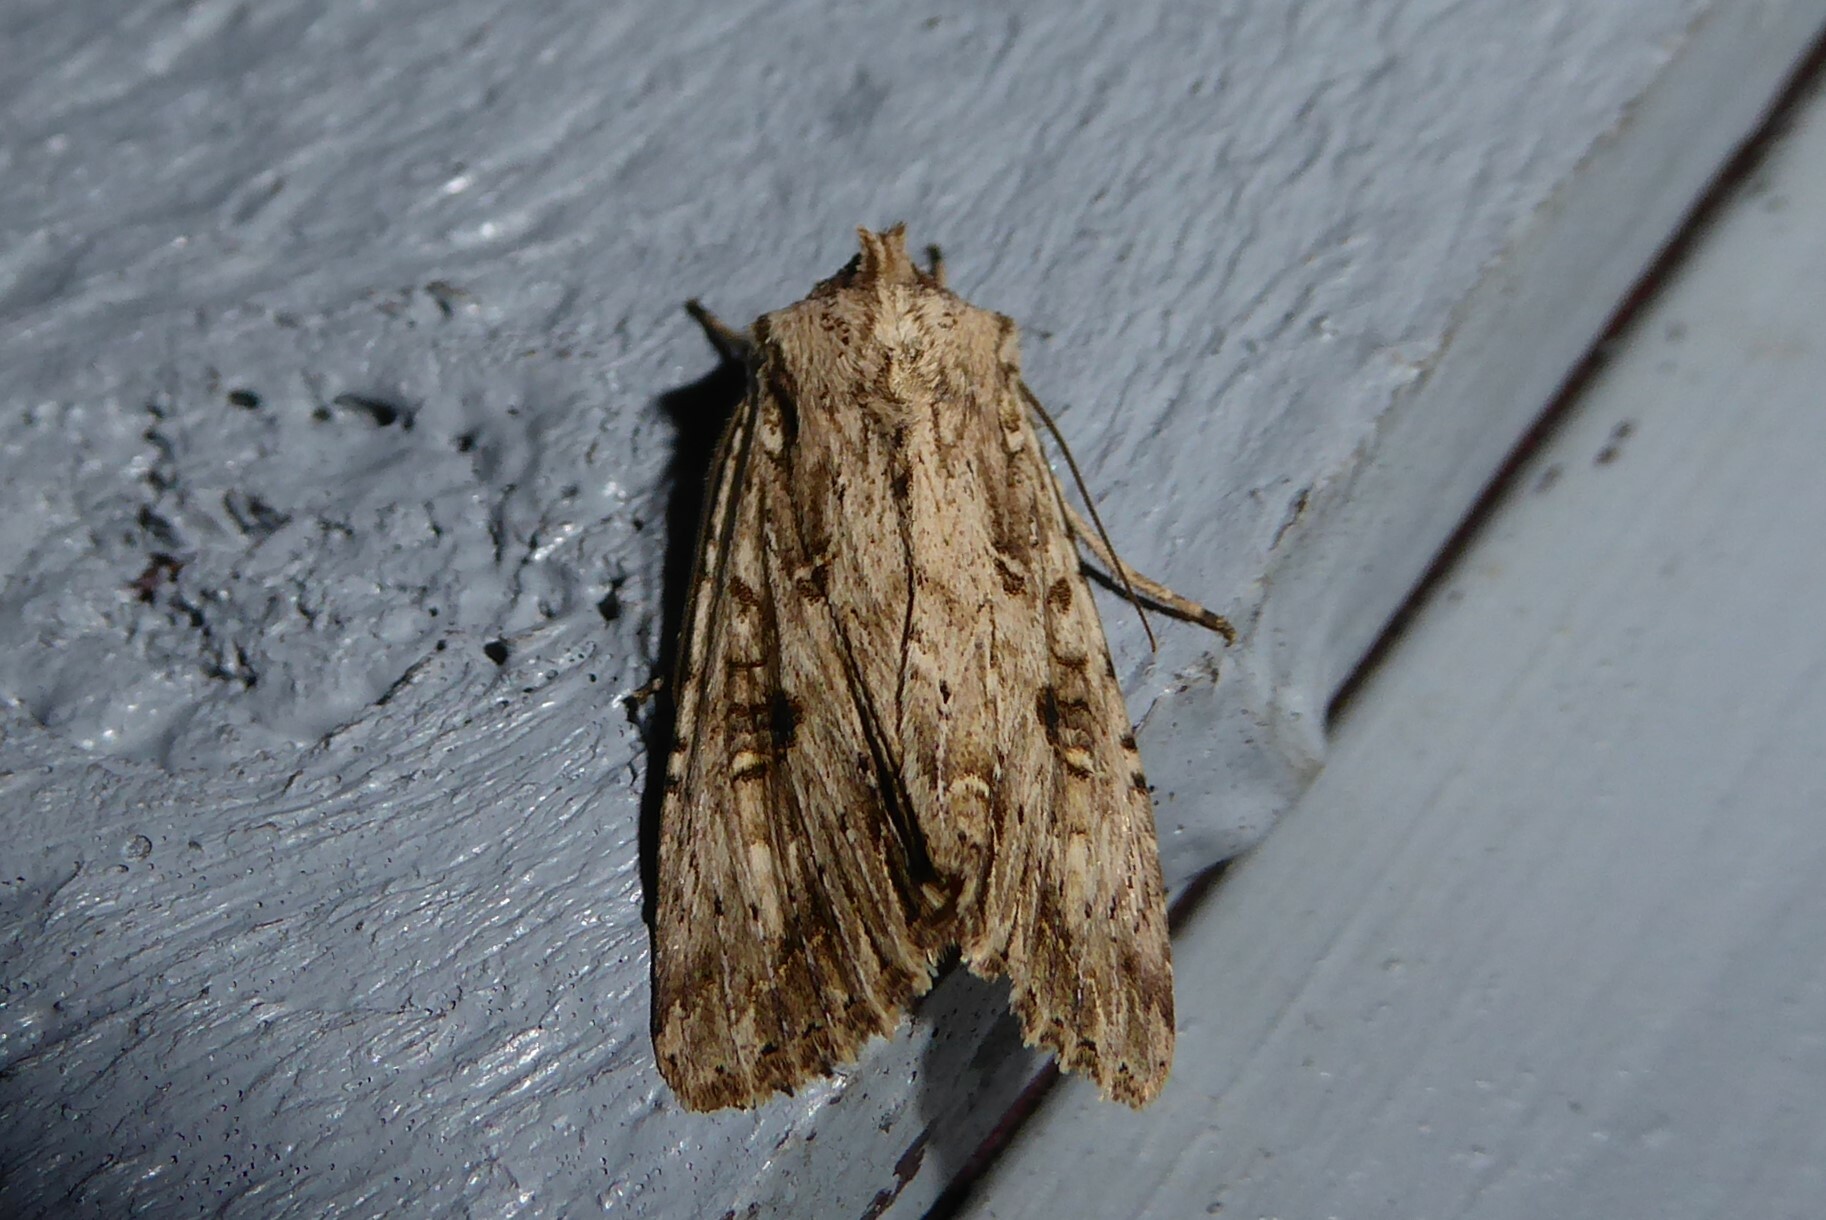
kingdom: Animalia
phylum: Arthropoda
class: Insecta
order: Lepidoptera
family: Noctuidae
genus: Ichneutica
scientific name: Ichneutica lignana
